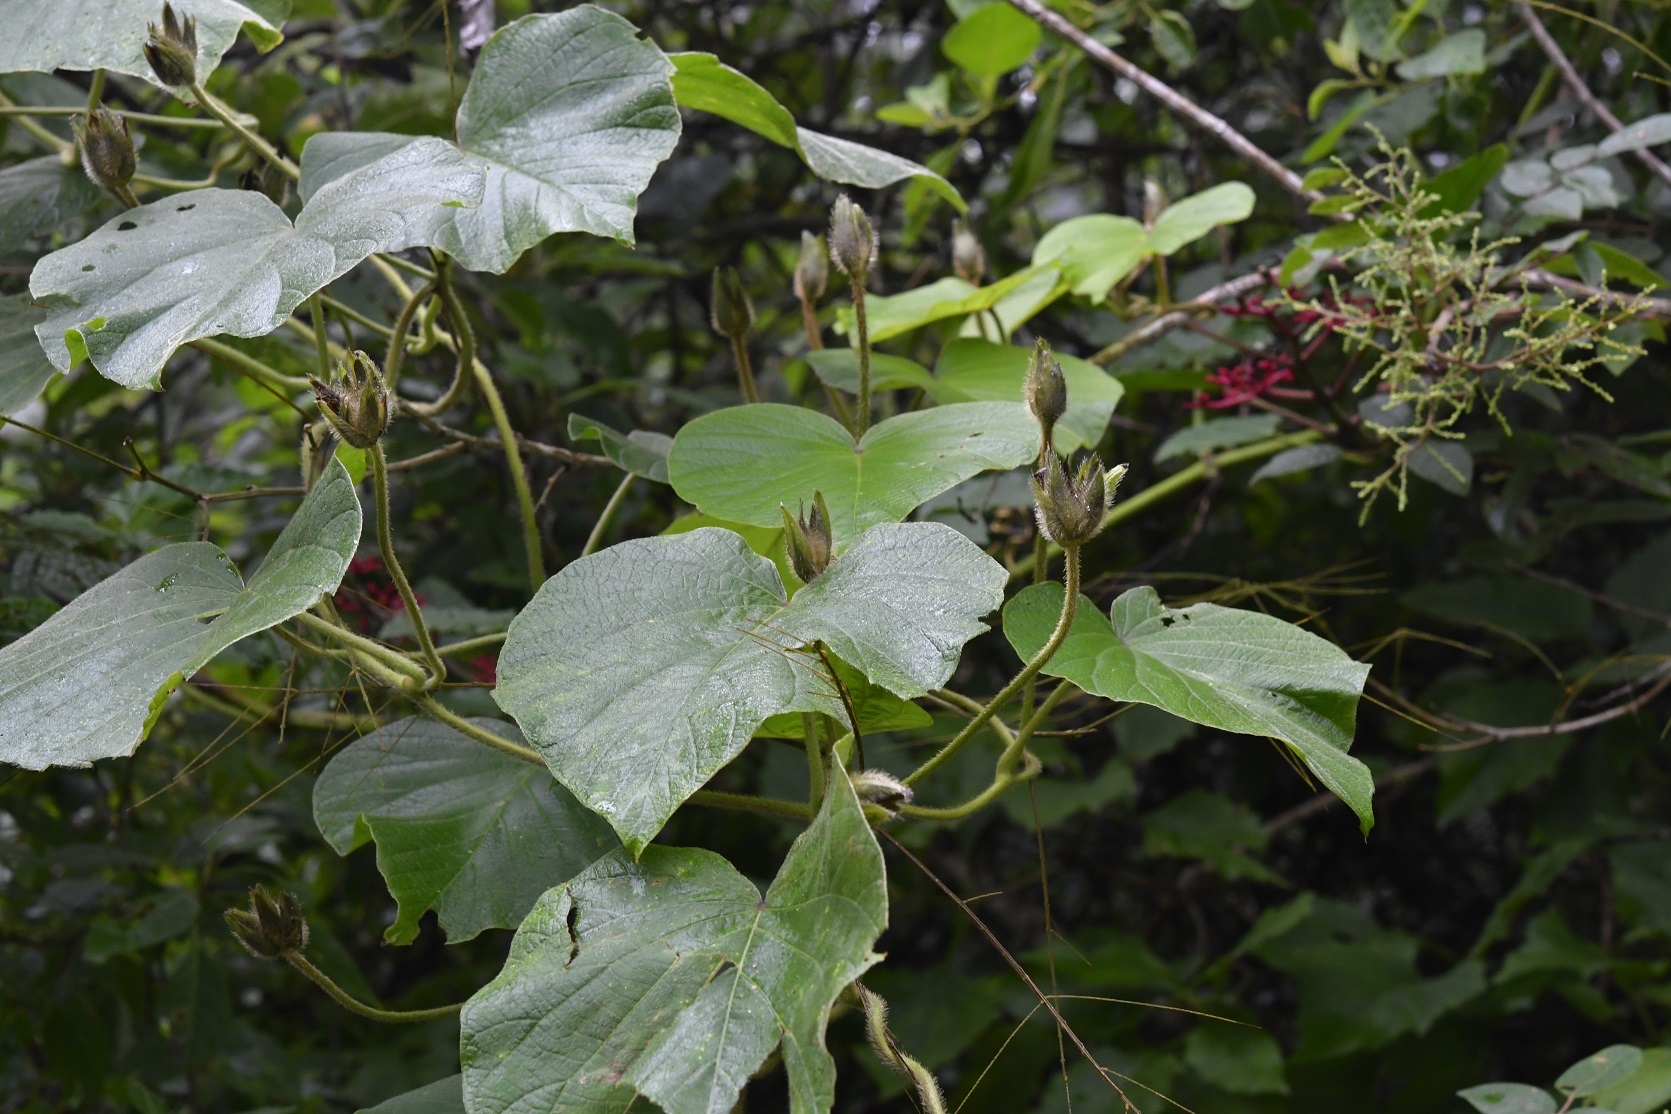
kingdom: Plantae
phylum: Tracheophyta
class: Magnoliopsida
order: Solanales
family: Convolvulaceae
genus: Ipomoea
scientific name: Ipomoea villifera
